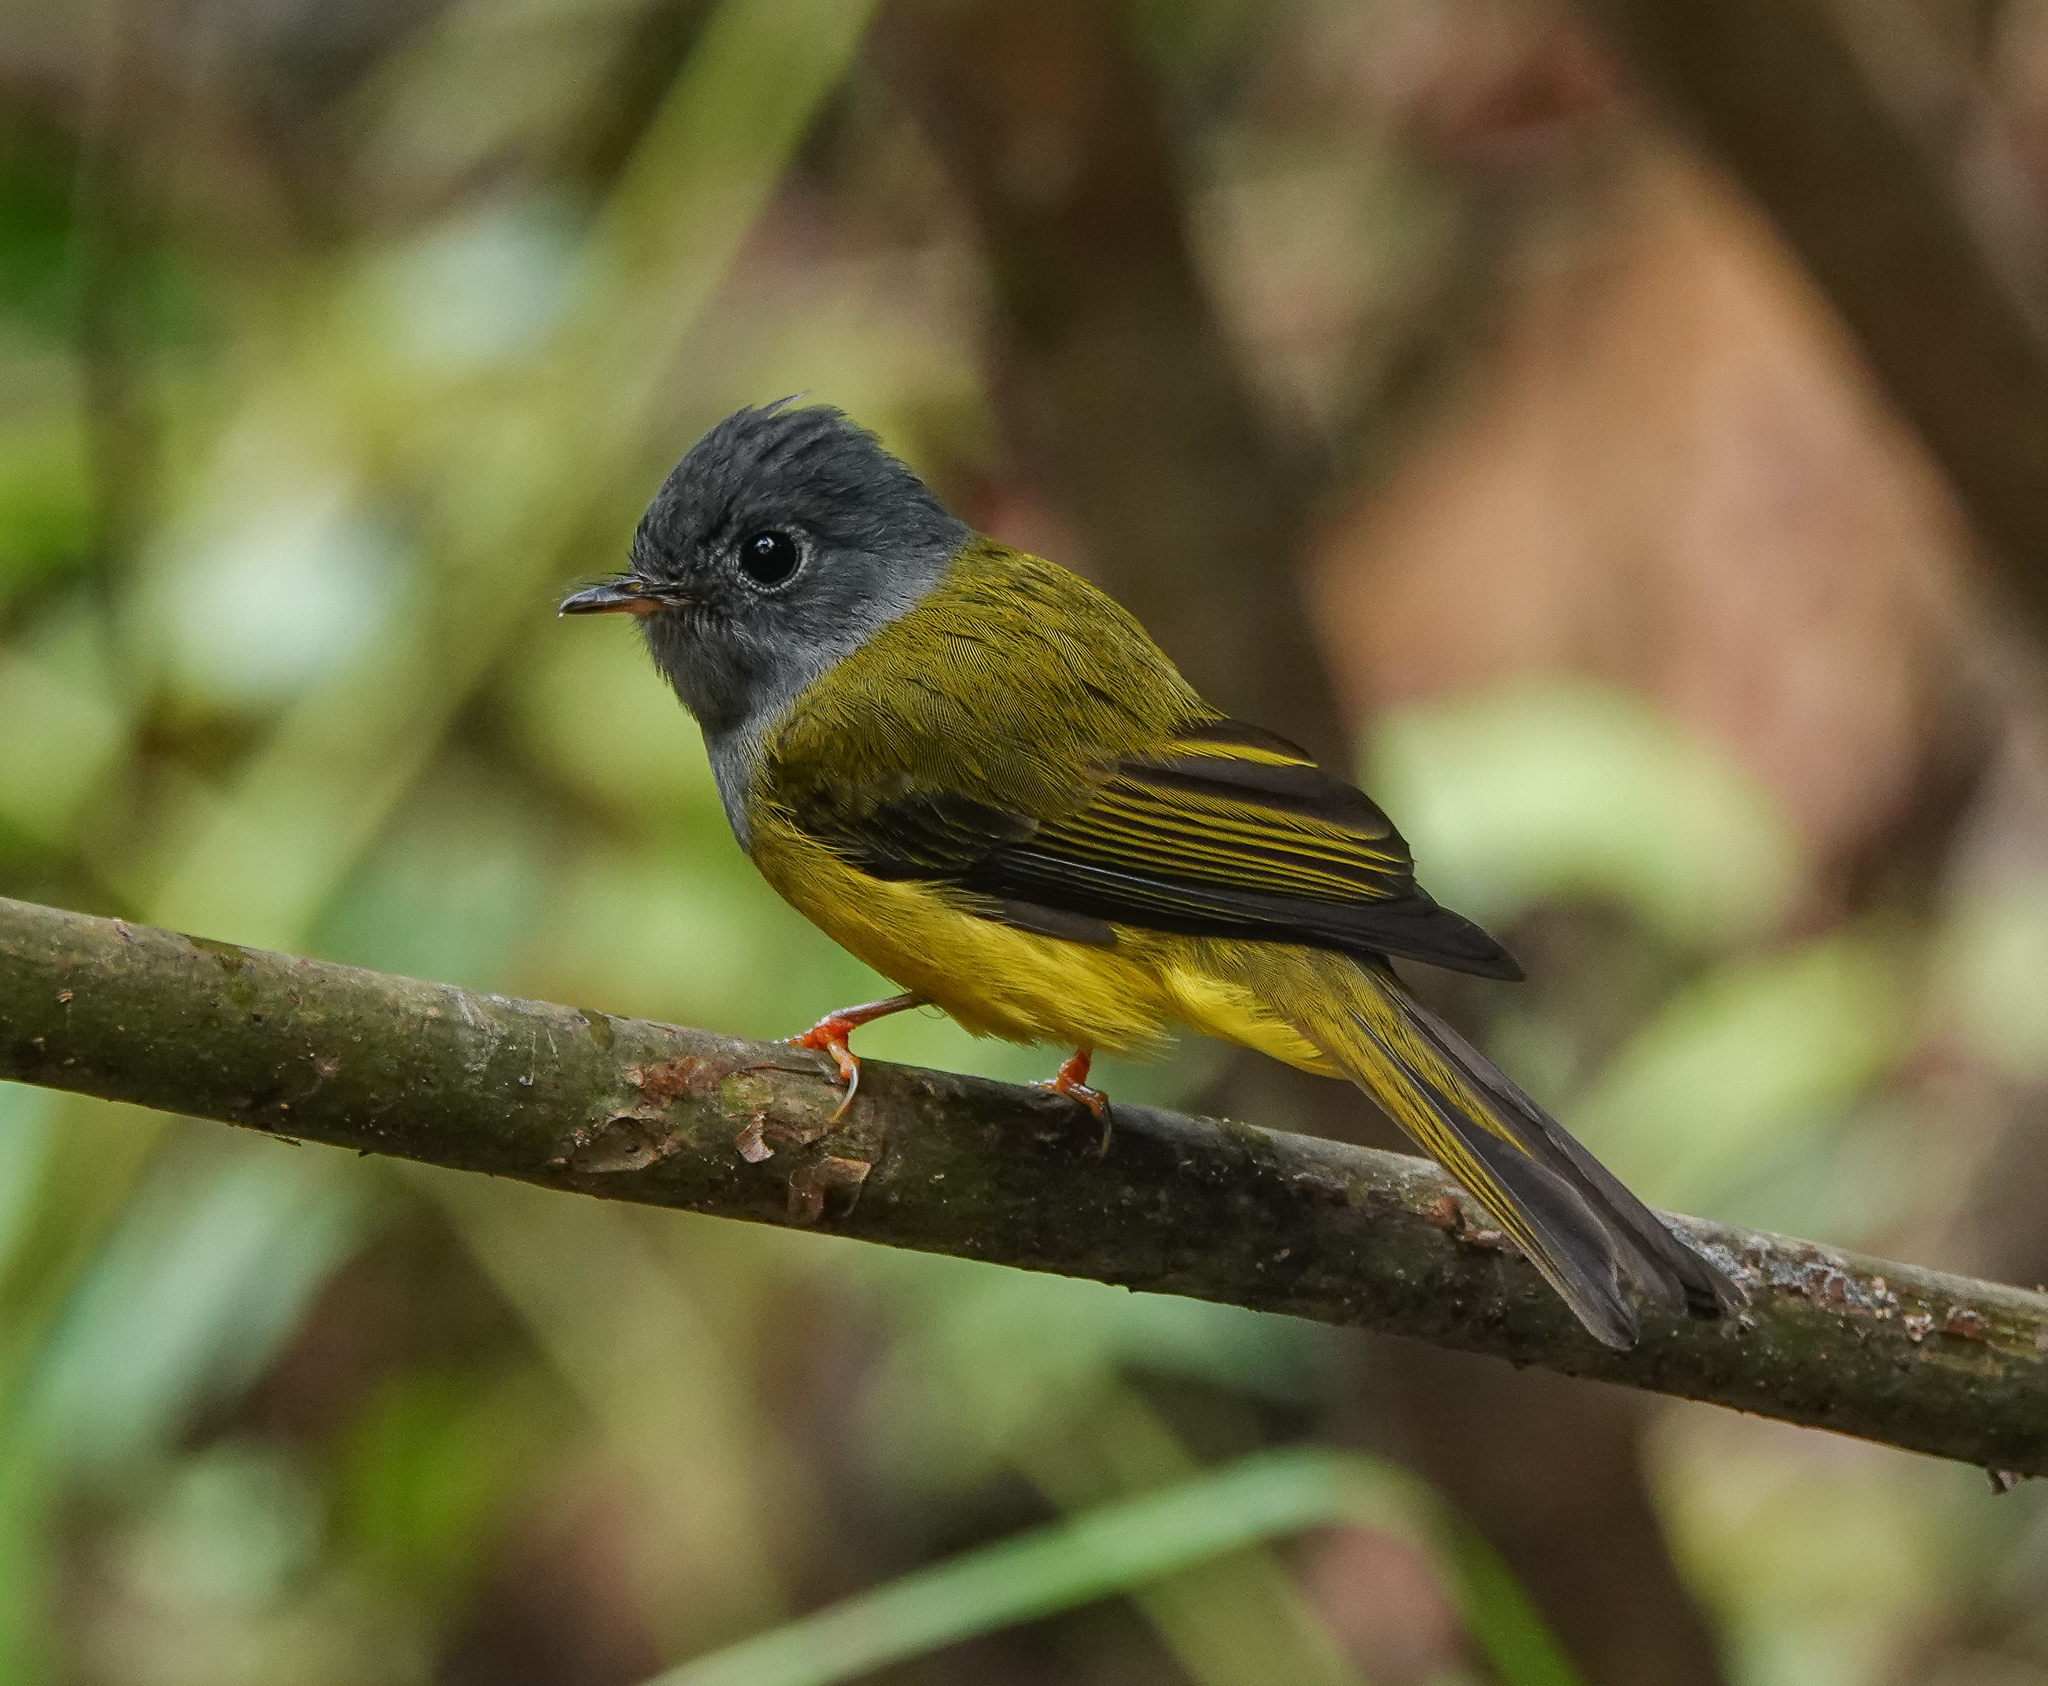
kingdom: Animalia
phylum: Chordata
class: Aves
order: Passeriformes
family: Stenostiridae
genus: Culicicapa
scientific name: Culicicapa ceylonensis
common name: Grey-headed canary-flycatcher
